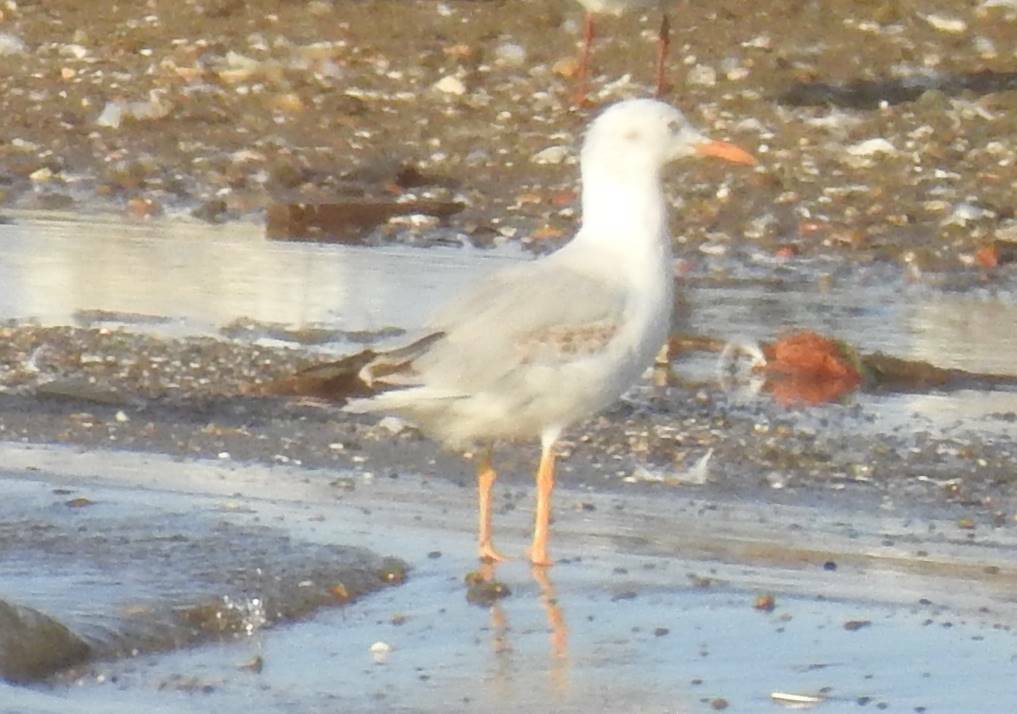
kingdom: Animalia
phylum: Chordata
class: Aves
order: Charadriiformes
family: Laridae
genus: Chroicocephalus
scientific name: Chroicocephalus genei
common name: Slender-billed gull
